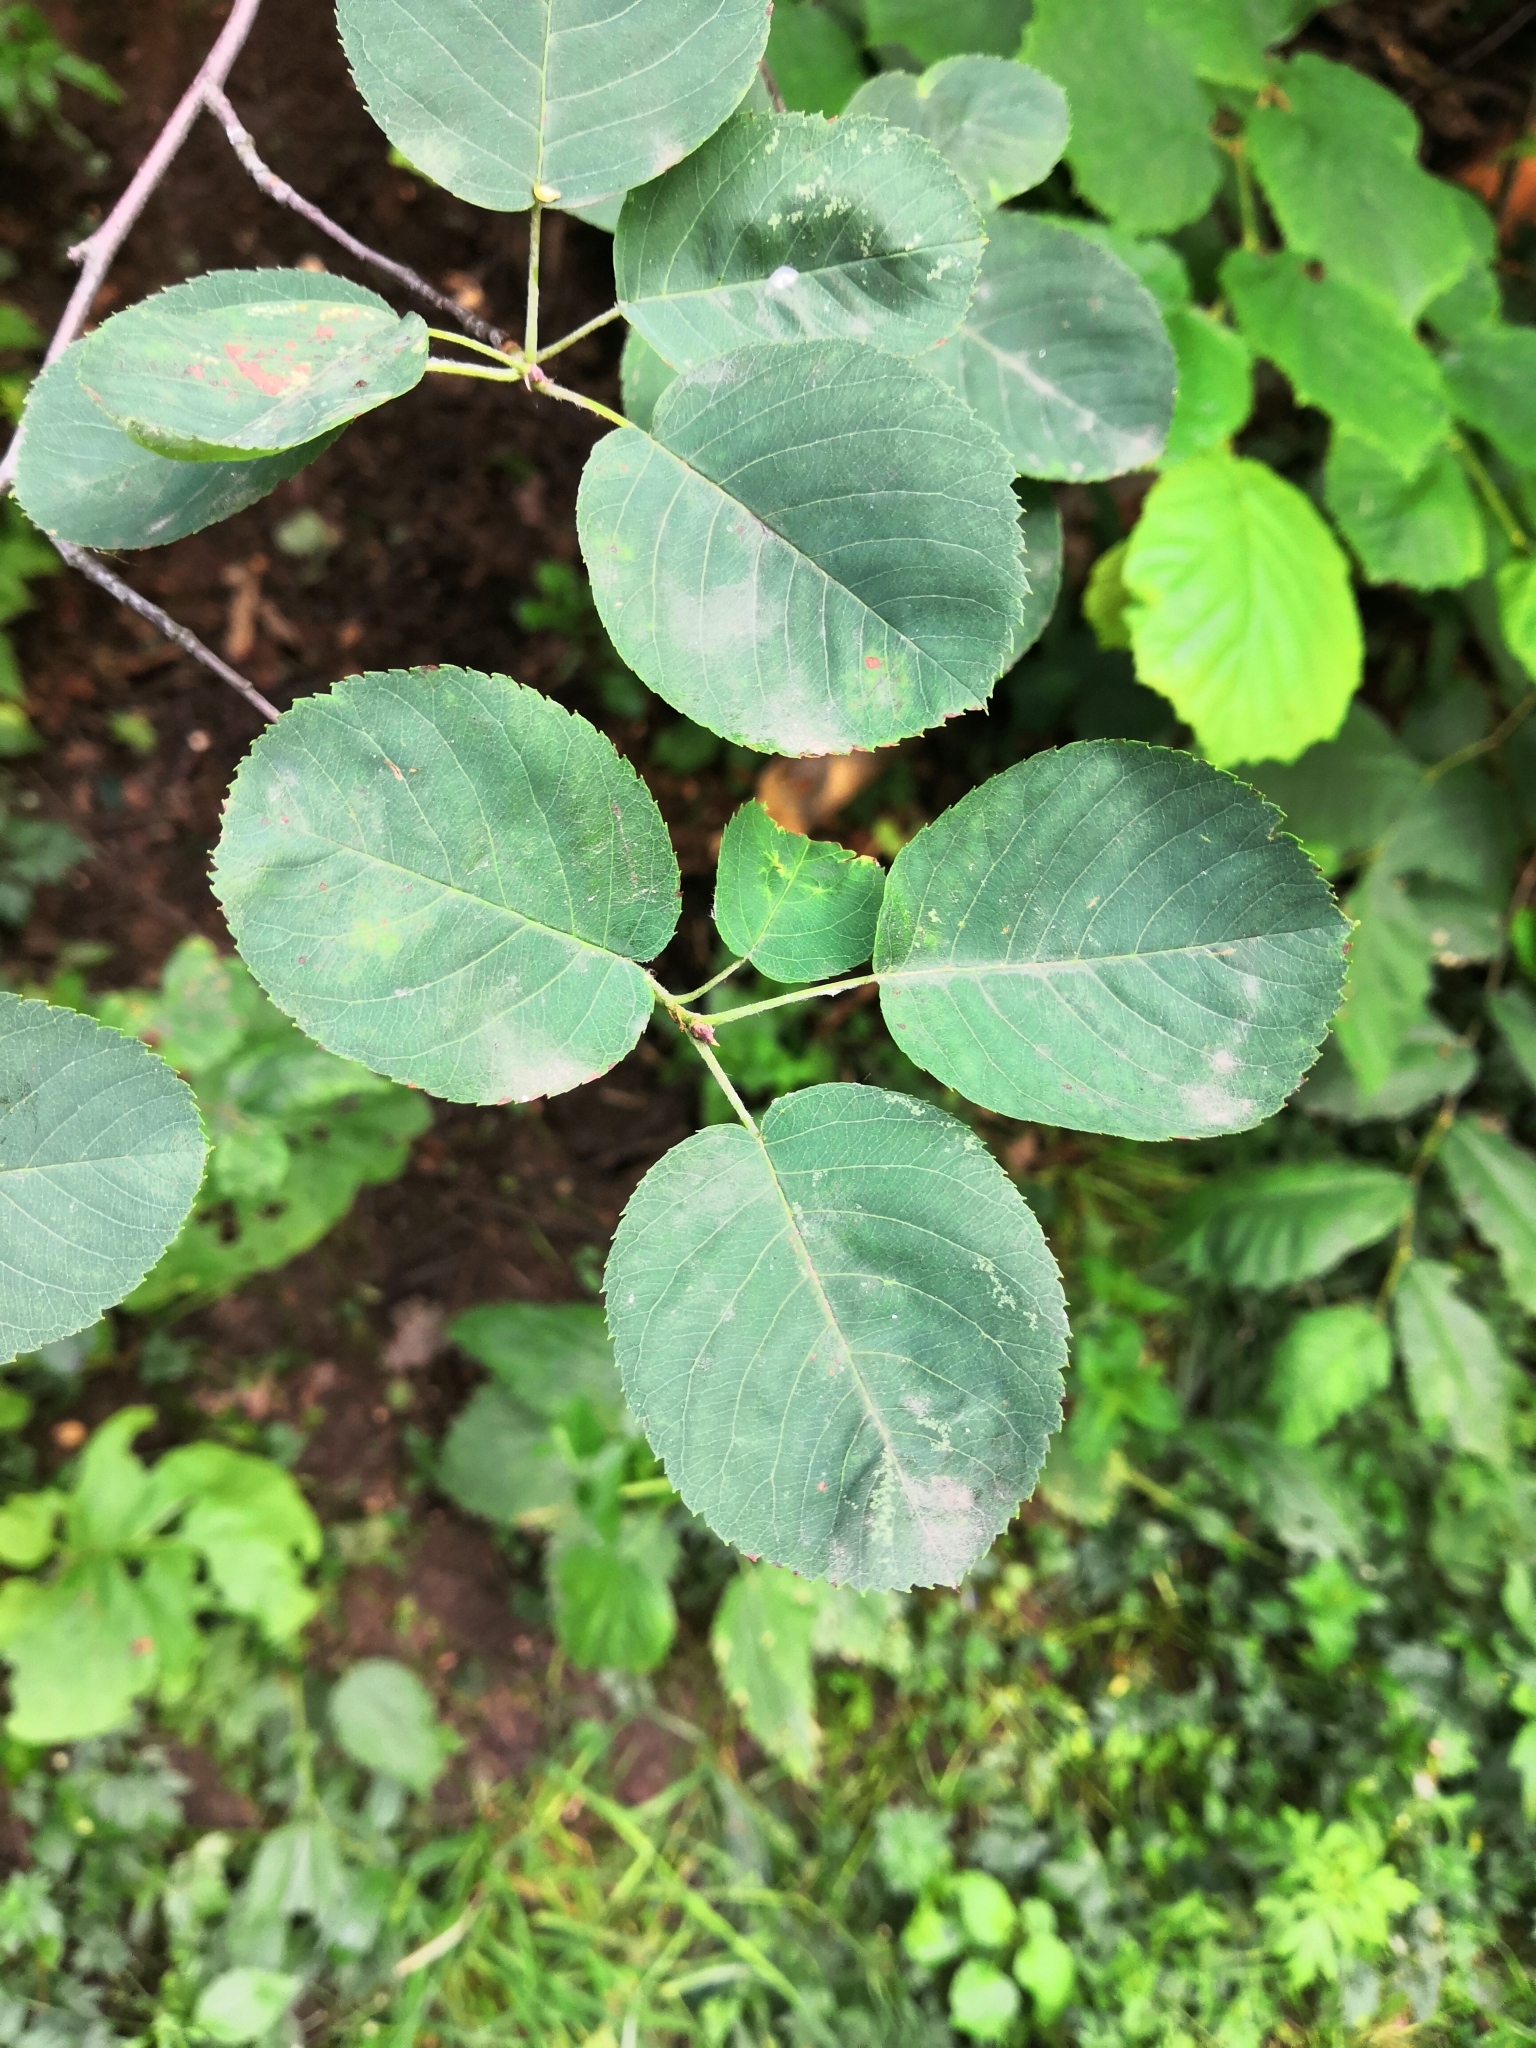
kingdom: Plantae
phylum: Tracheophyta
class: Magnoliopsida
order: Rosales
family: Rosaceae
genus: Amelanchier
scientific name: Amelanchier
